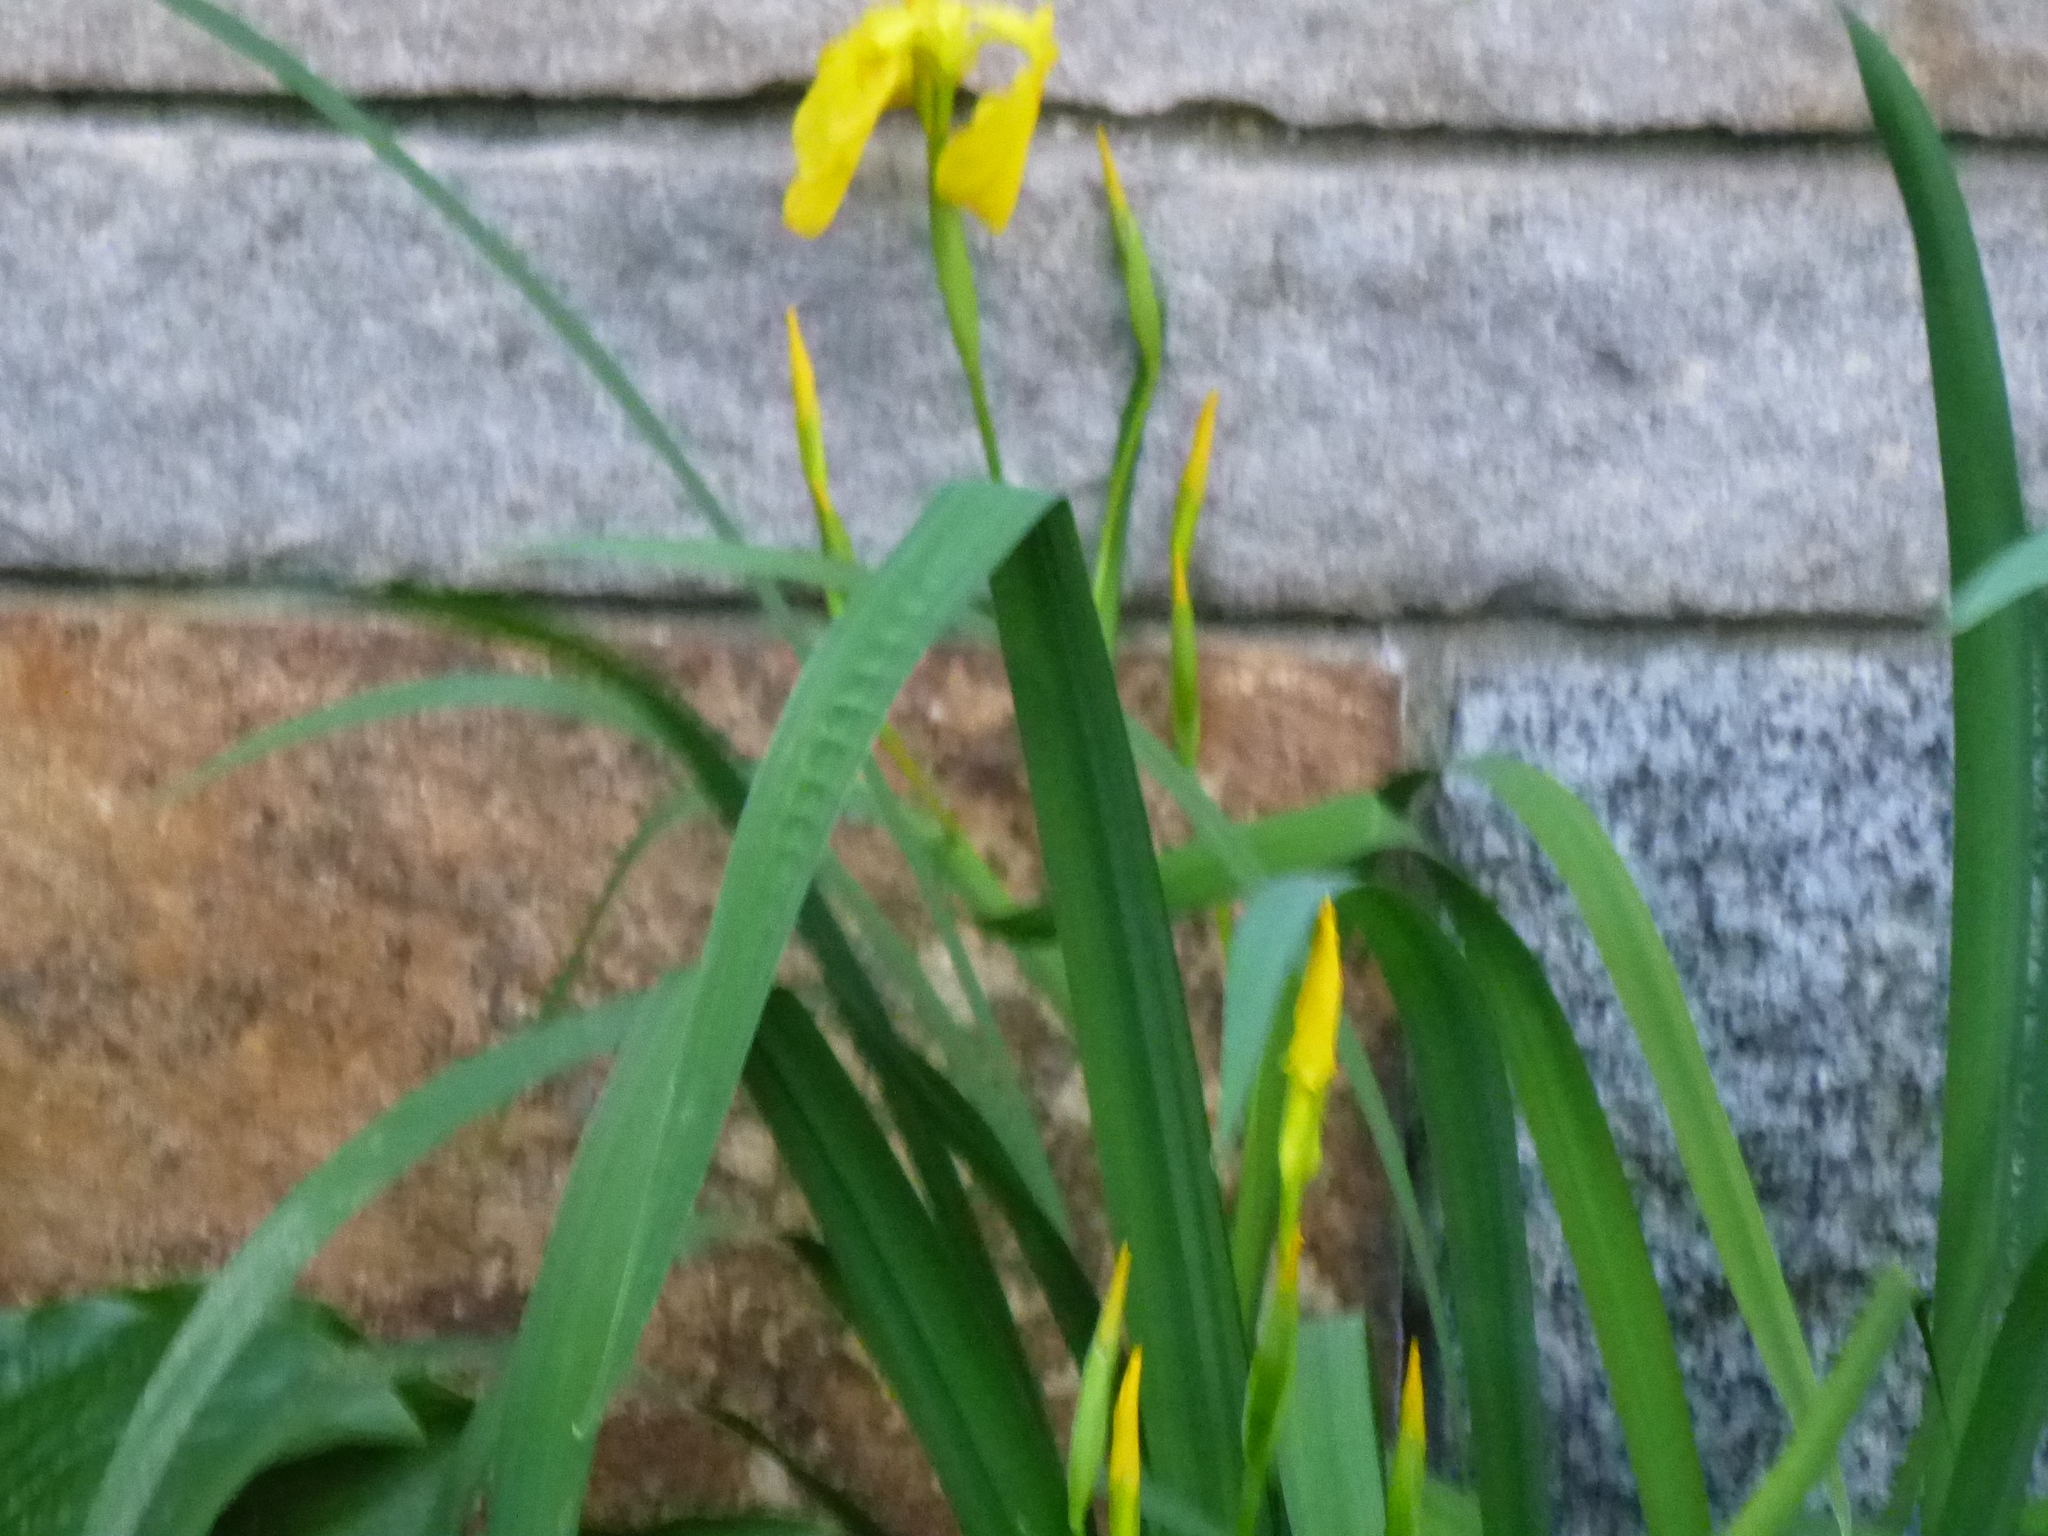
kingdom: Plantae
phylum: Tracheophyta
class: Liliopsida
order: Asparagales
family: Iridaceae
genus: Iris
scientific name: Iris pseudacorus
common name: Yellow flag
